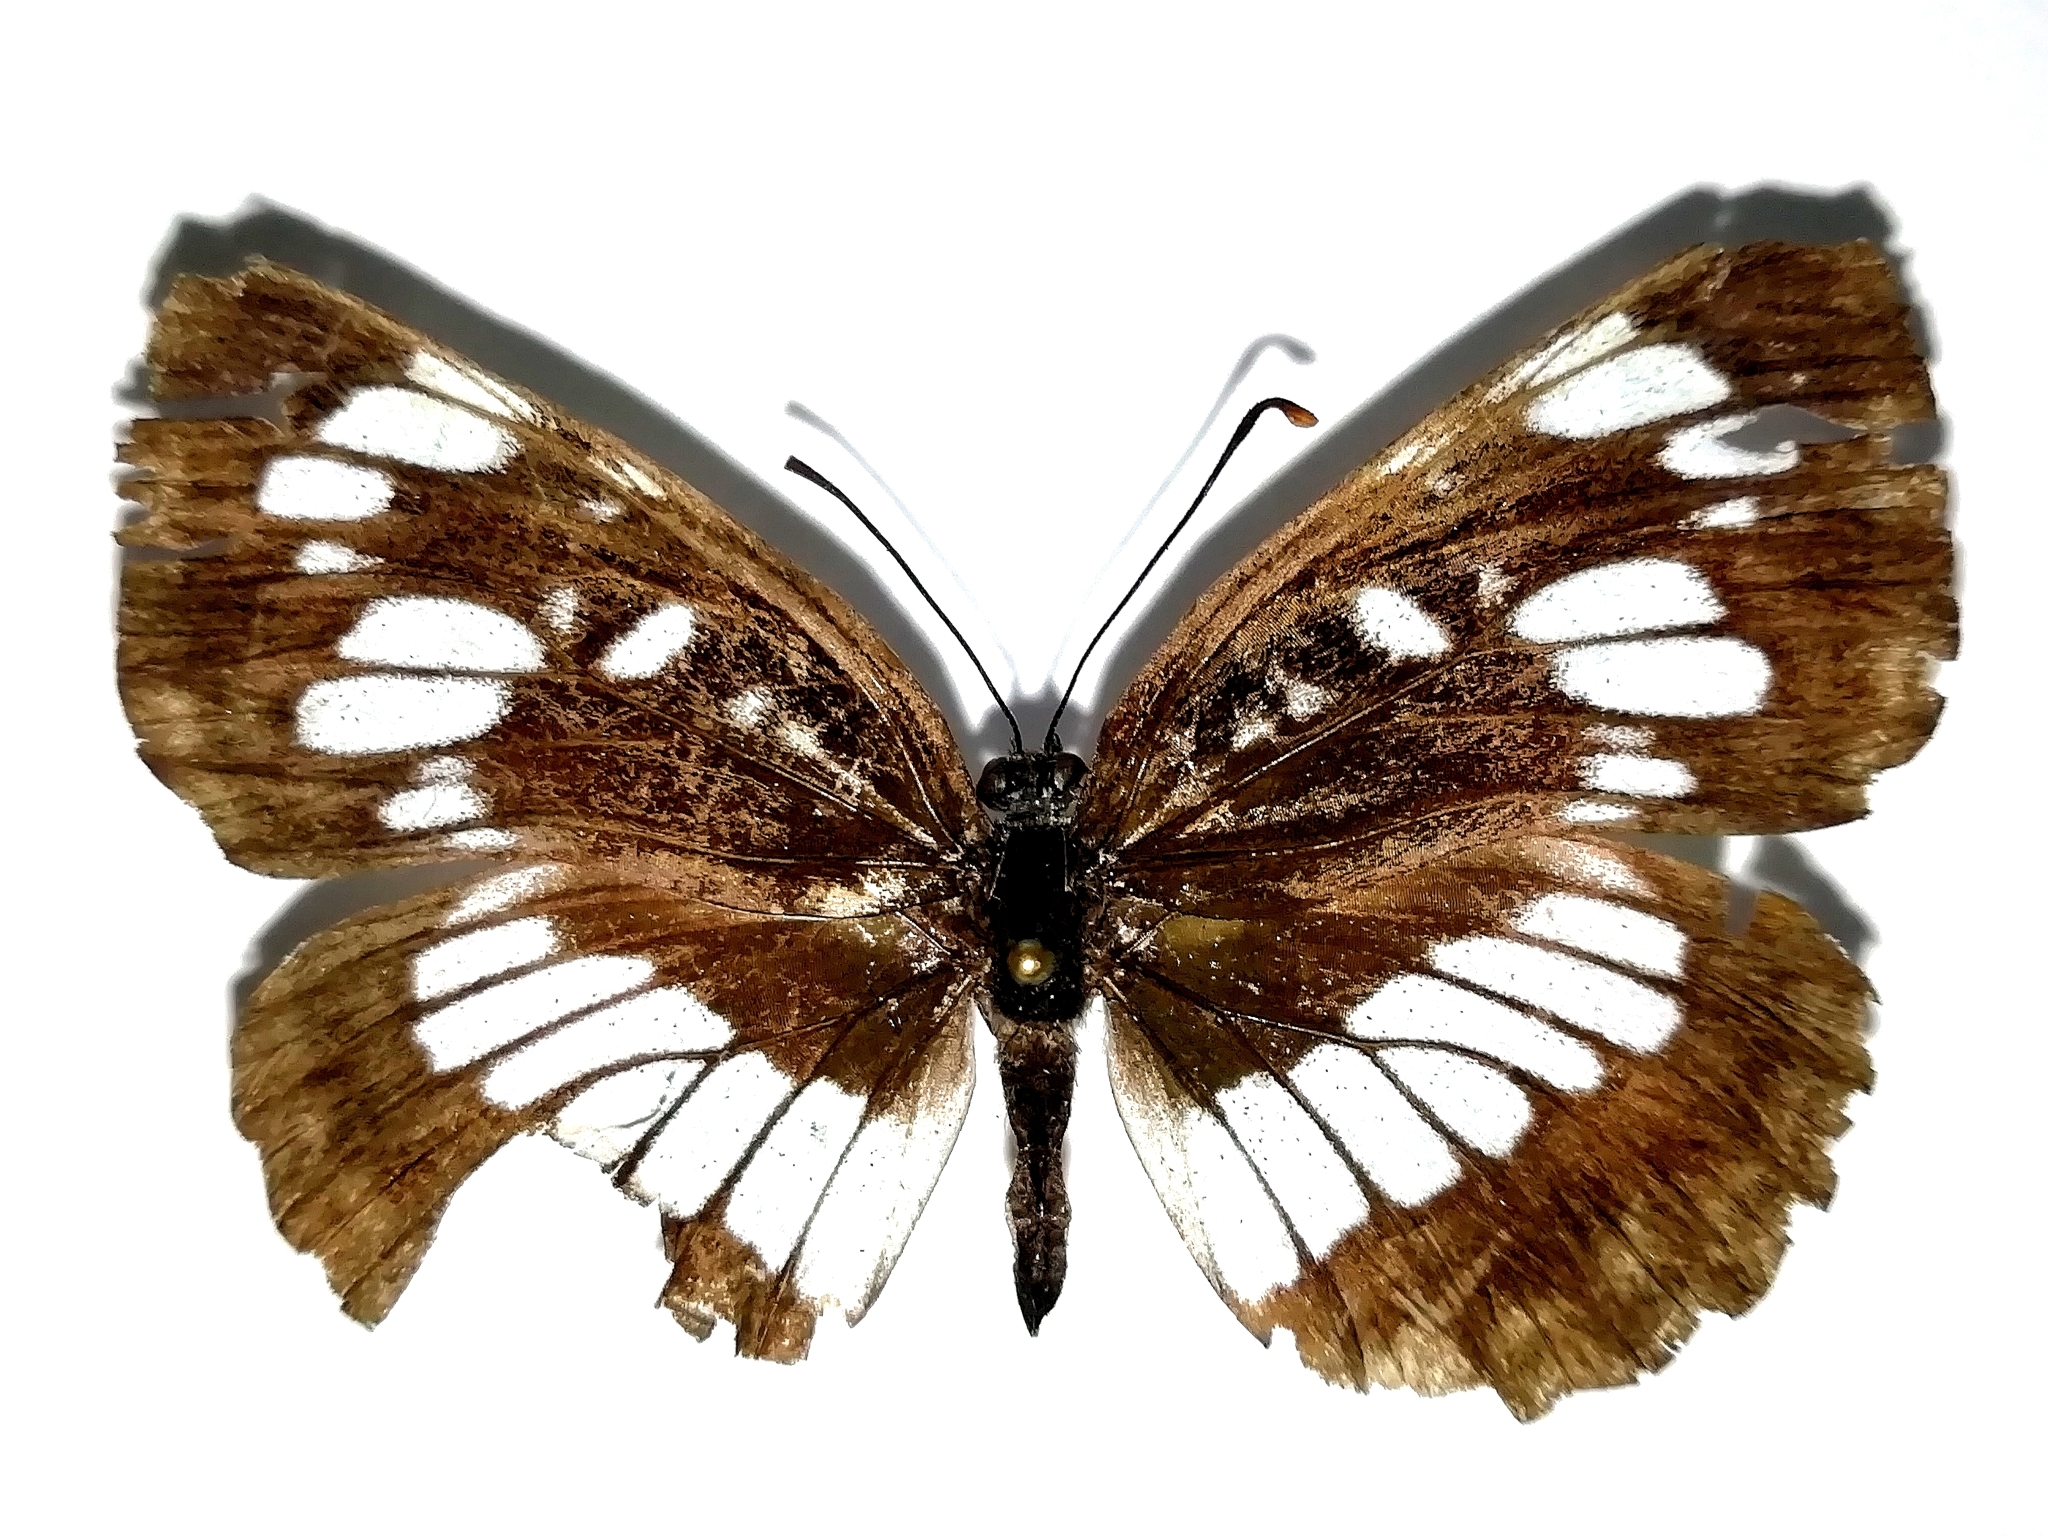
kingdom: Animalia
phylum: Arthropoda
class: Insecta
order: Lepidoptera
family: Nymphalidae
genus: Neptis
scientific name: Neptis rivularis
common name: Hungarian glider
